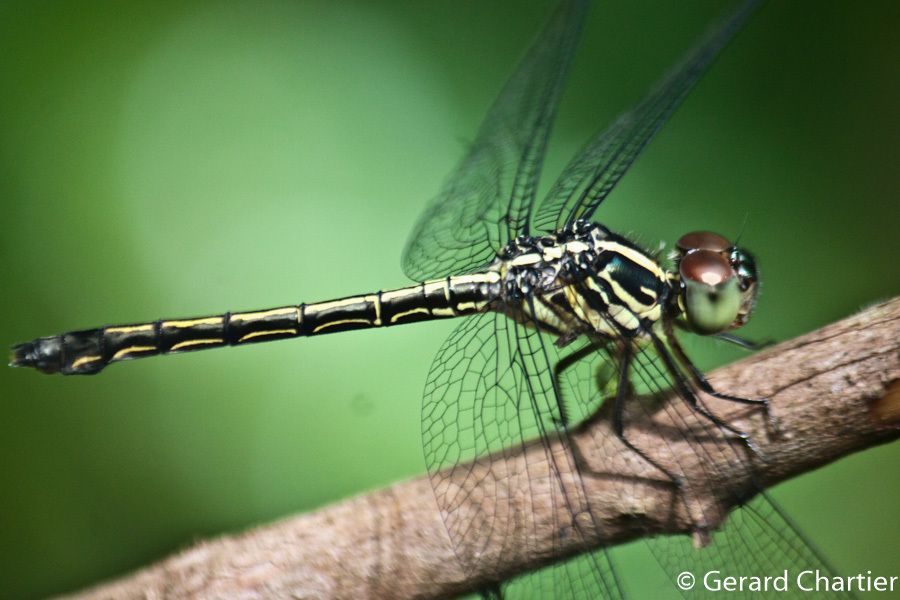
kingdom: Animalia
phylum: Arthropoda
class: Insecta
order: Odonata
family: Libellulidae
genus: Cratilla
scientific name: Cratilla lineata
